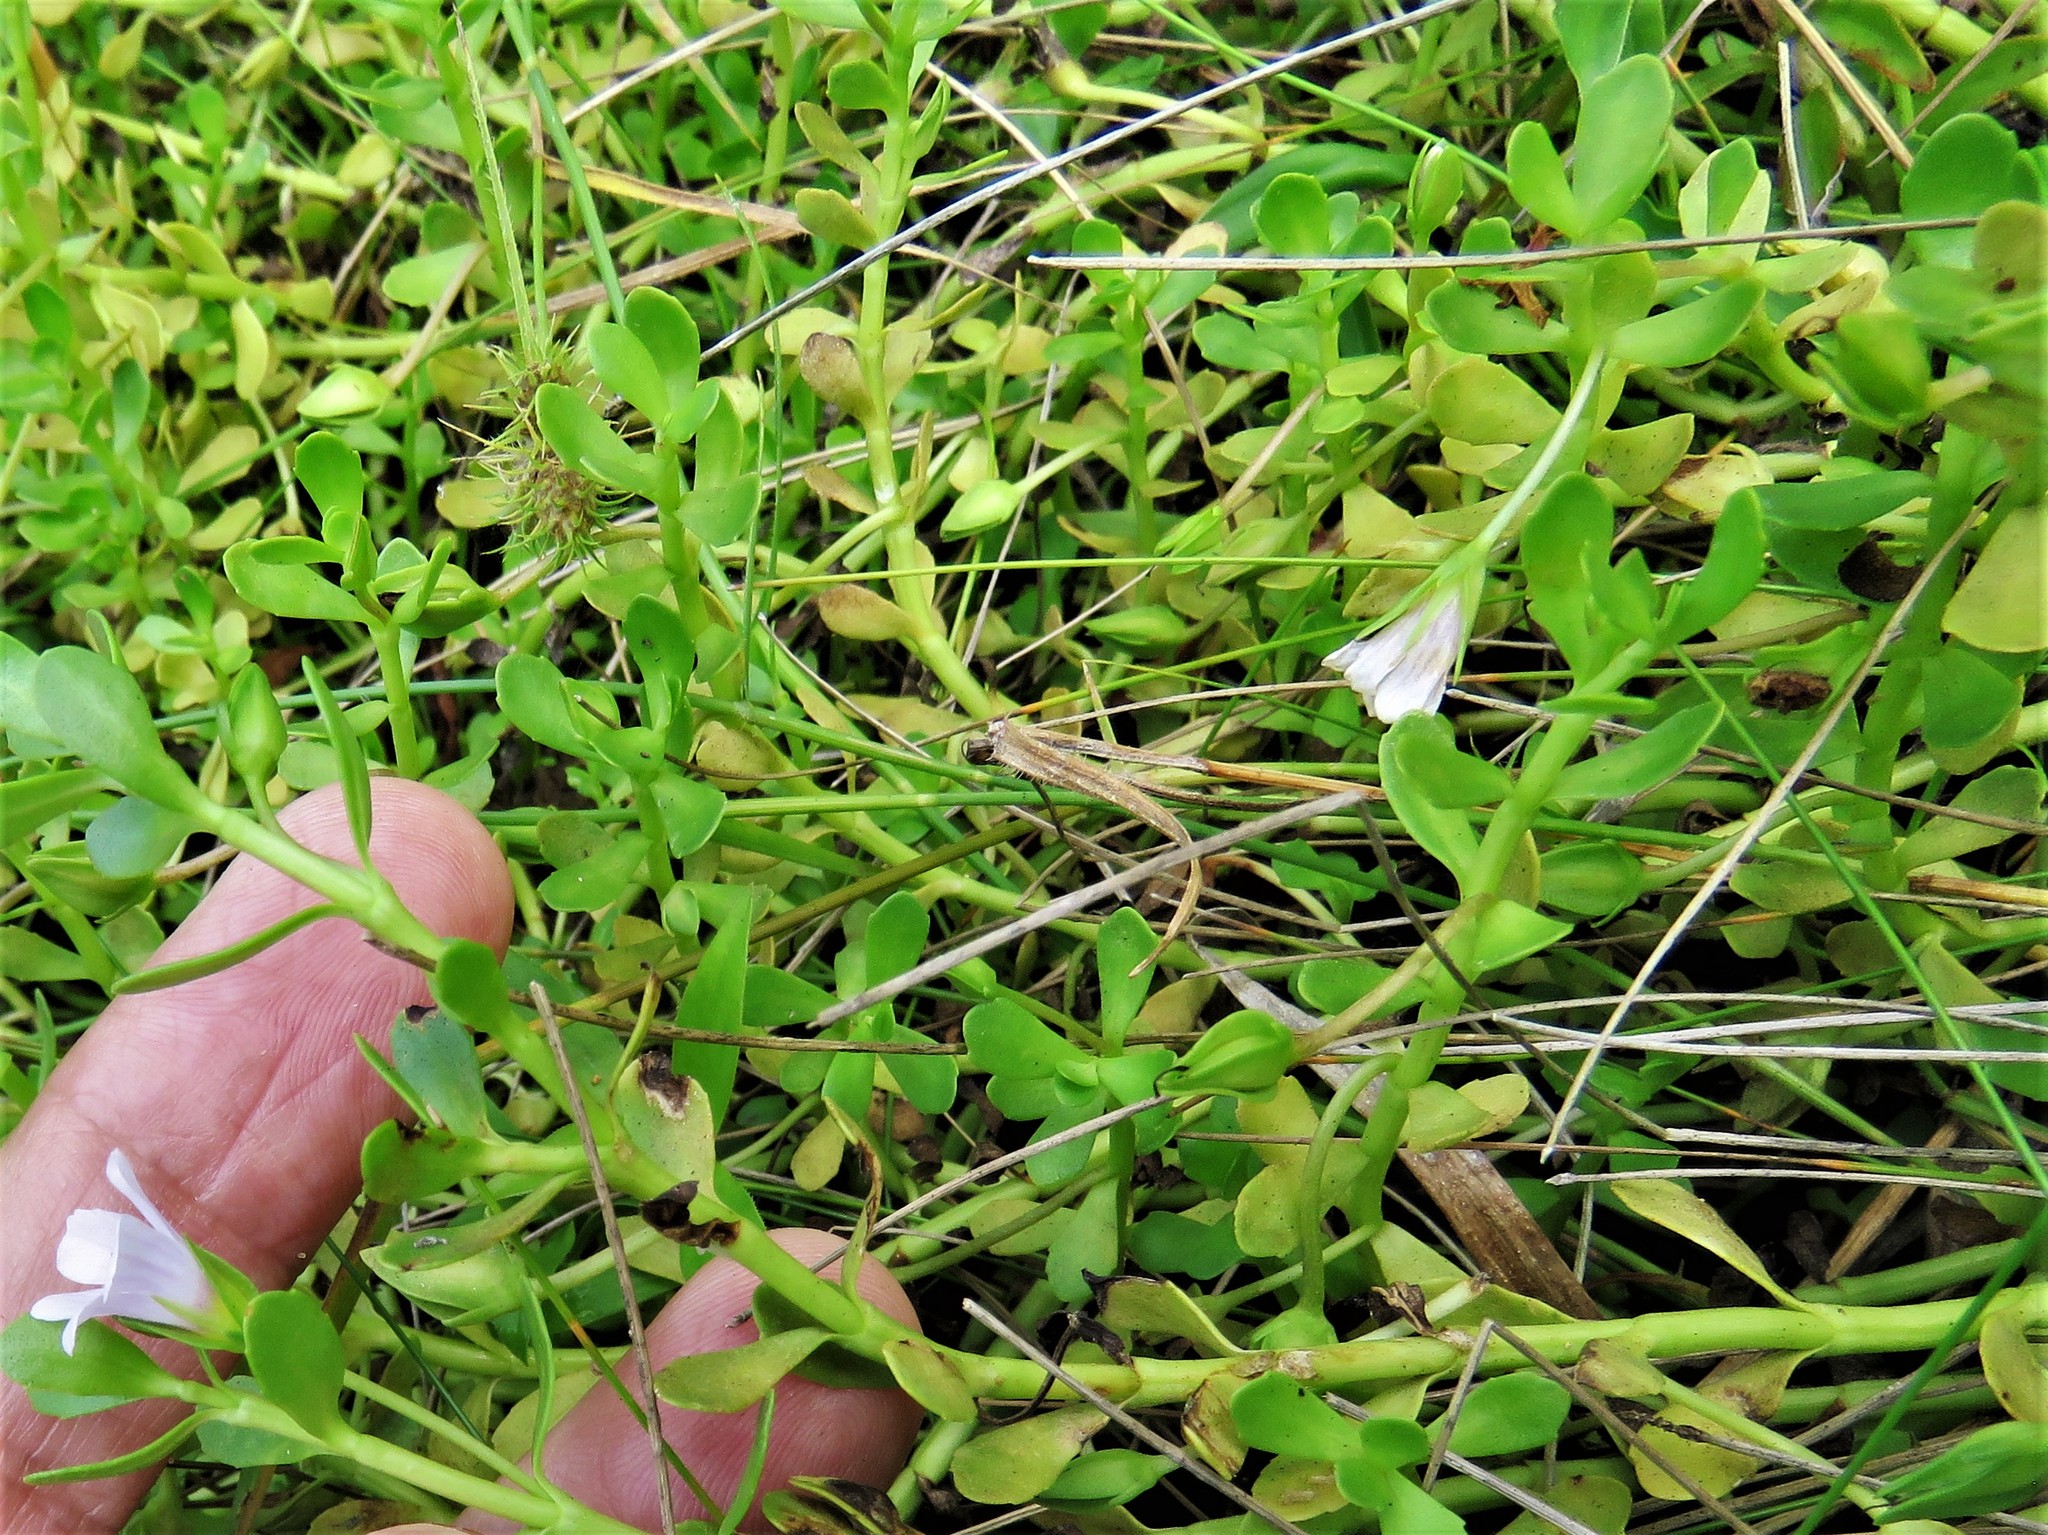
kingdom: Plantae
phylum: Tracheophyta
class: Magnoliopsida
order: Lamiales
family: Plantaginaceae
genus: Bacopa
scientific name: Bacopa monnieri
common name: Indian-pennywort
